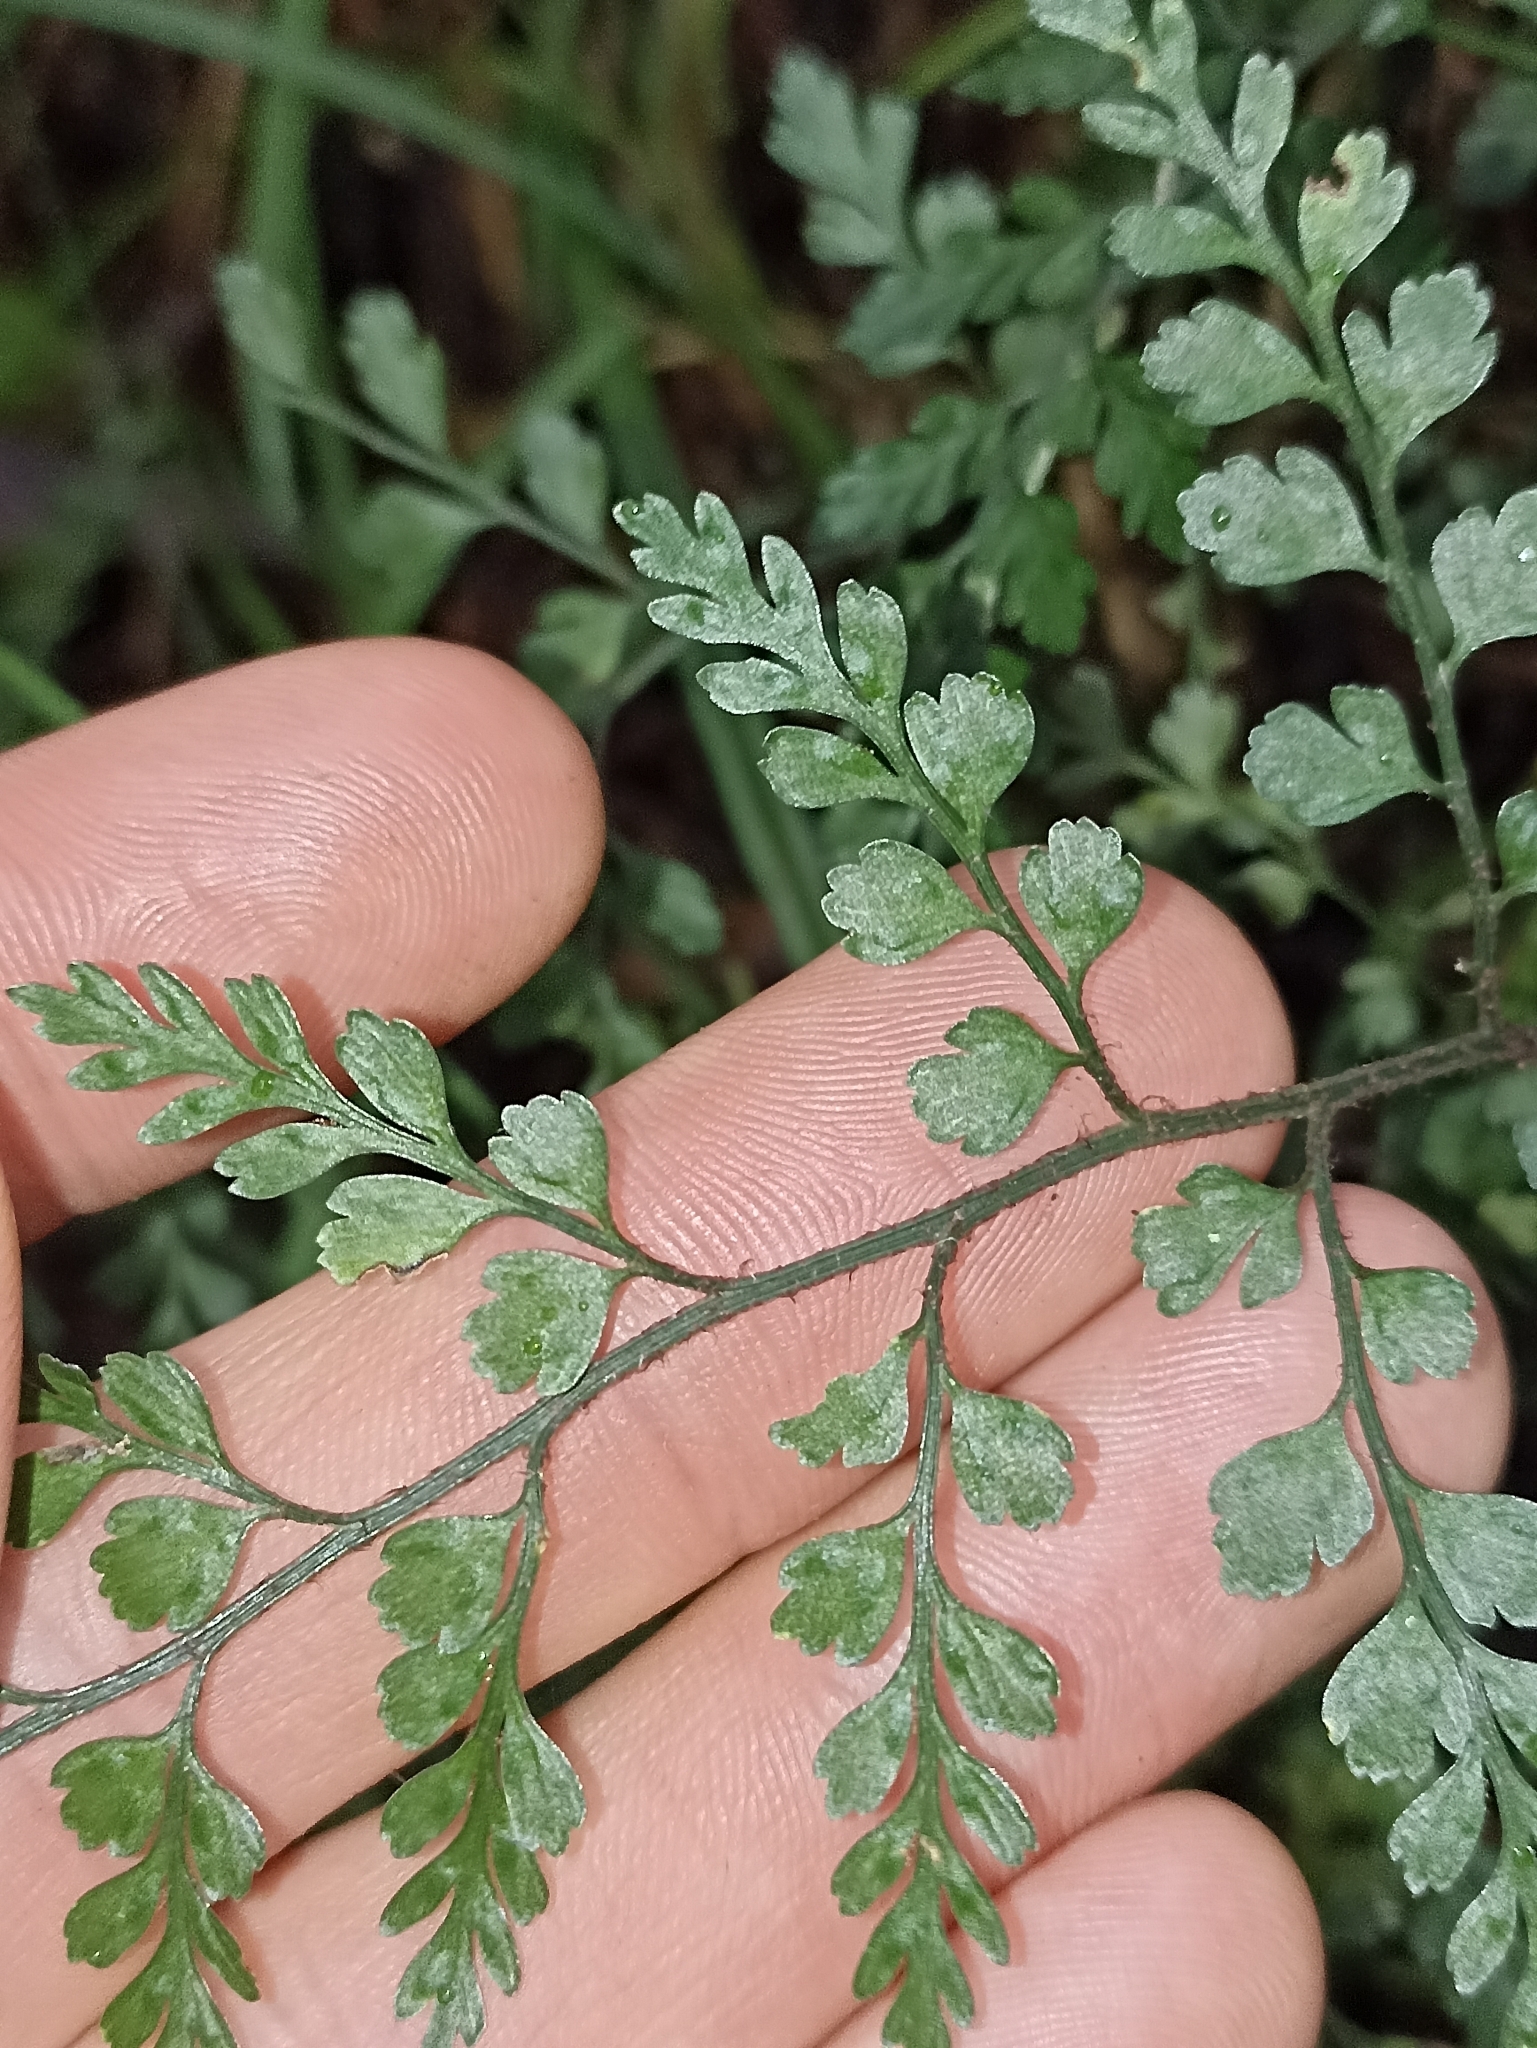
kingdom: Plantae
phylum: Tracheophyta
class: Polypodiopsida
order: Polypodiales
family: Aspleniaceae
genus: Asplenium
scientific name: Asplenium hookerianum
